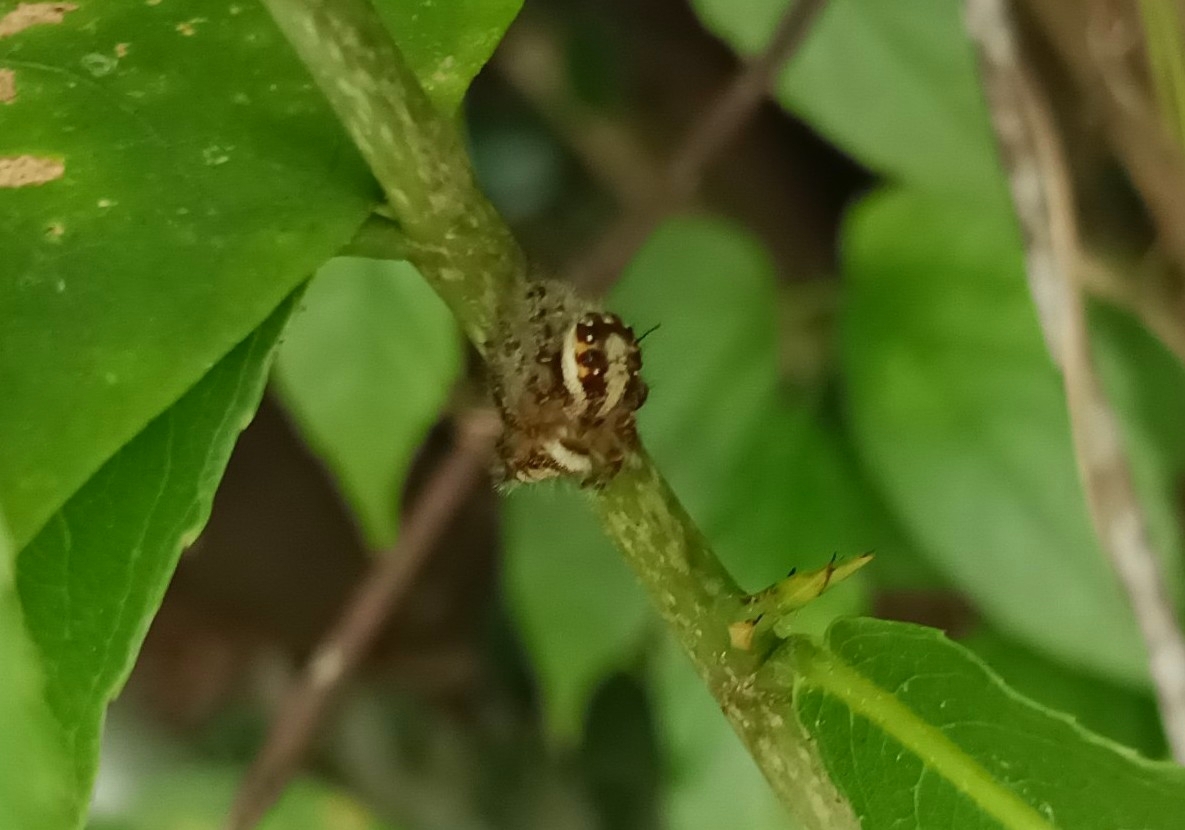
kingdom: Animalia
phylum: Arthropoda
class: Arachnida
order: Araneae
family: Salticidae
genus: Hyllus
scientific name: Hyllus semicupreus
